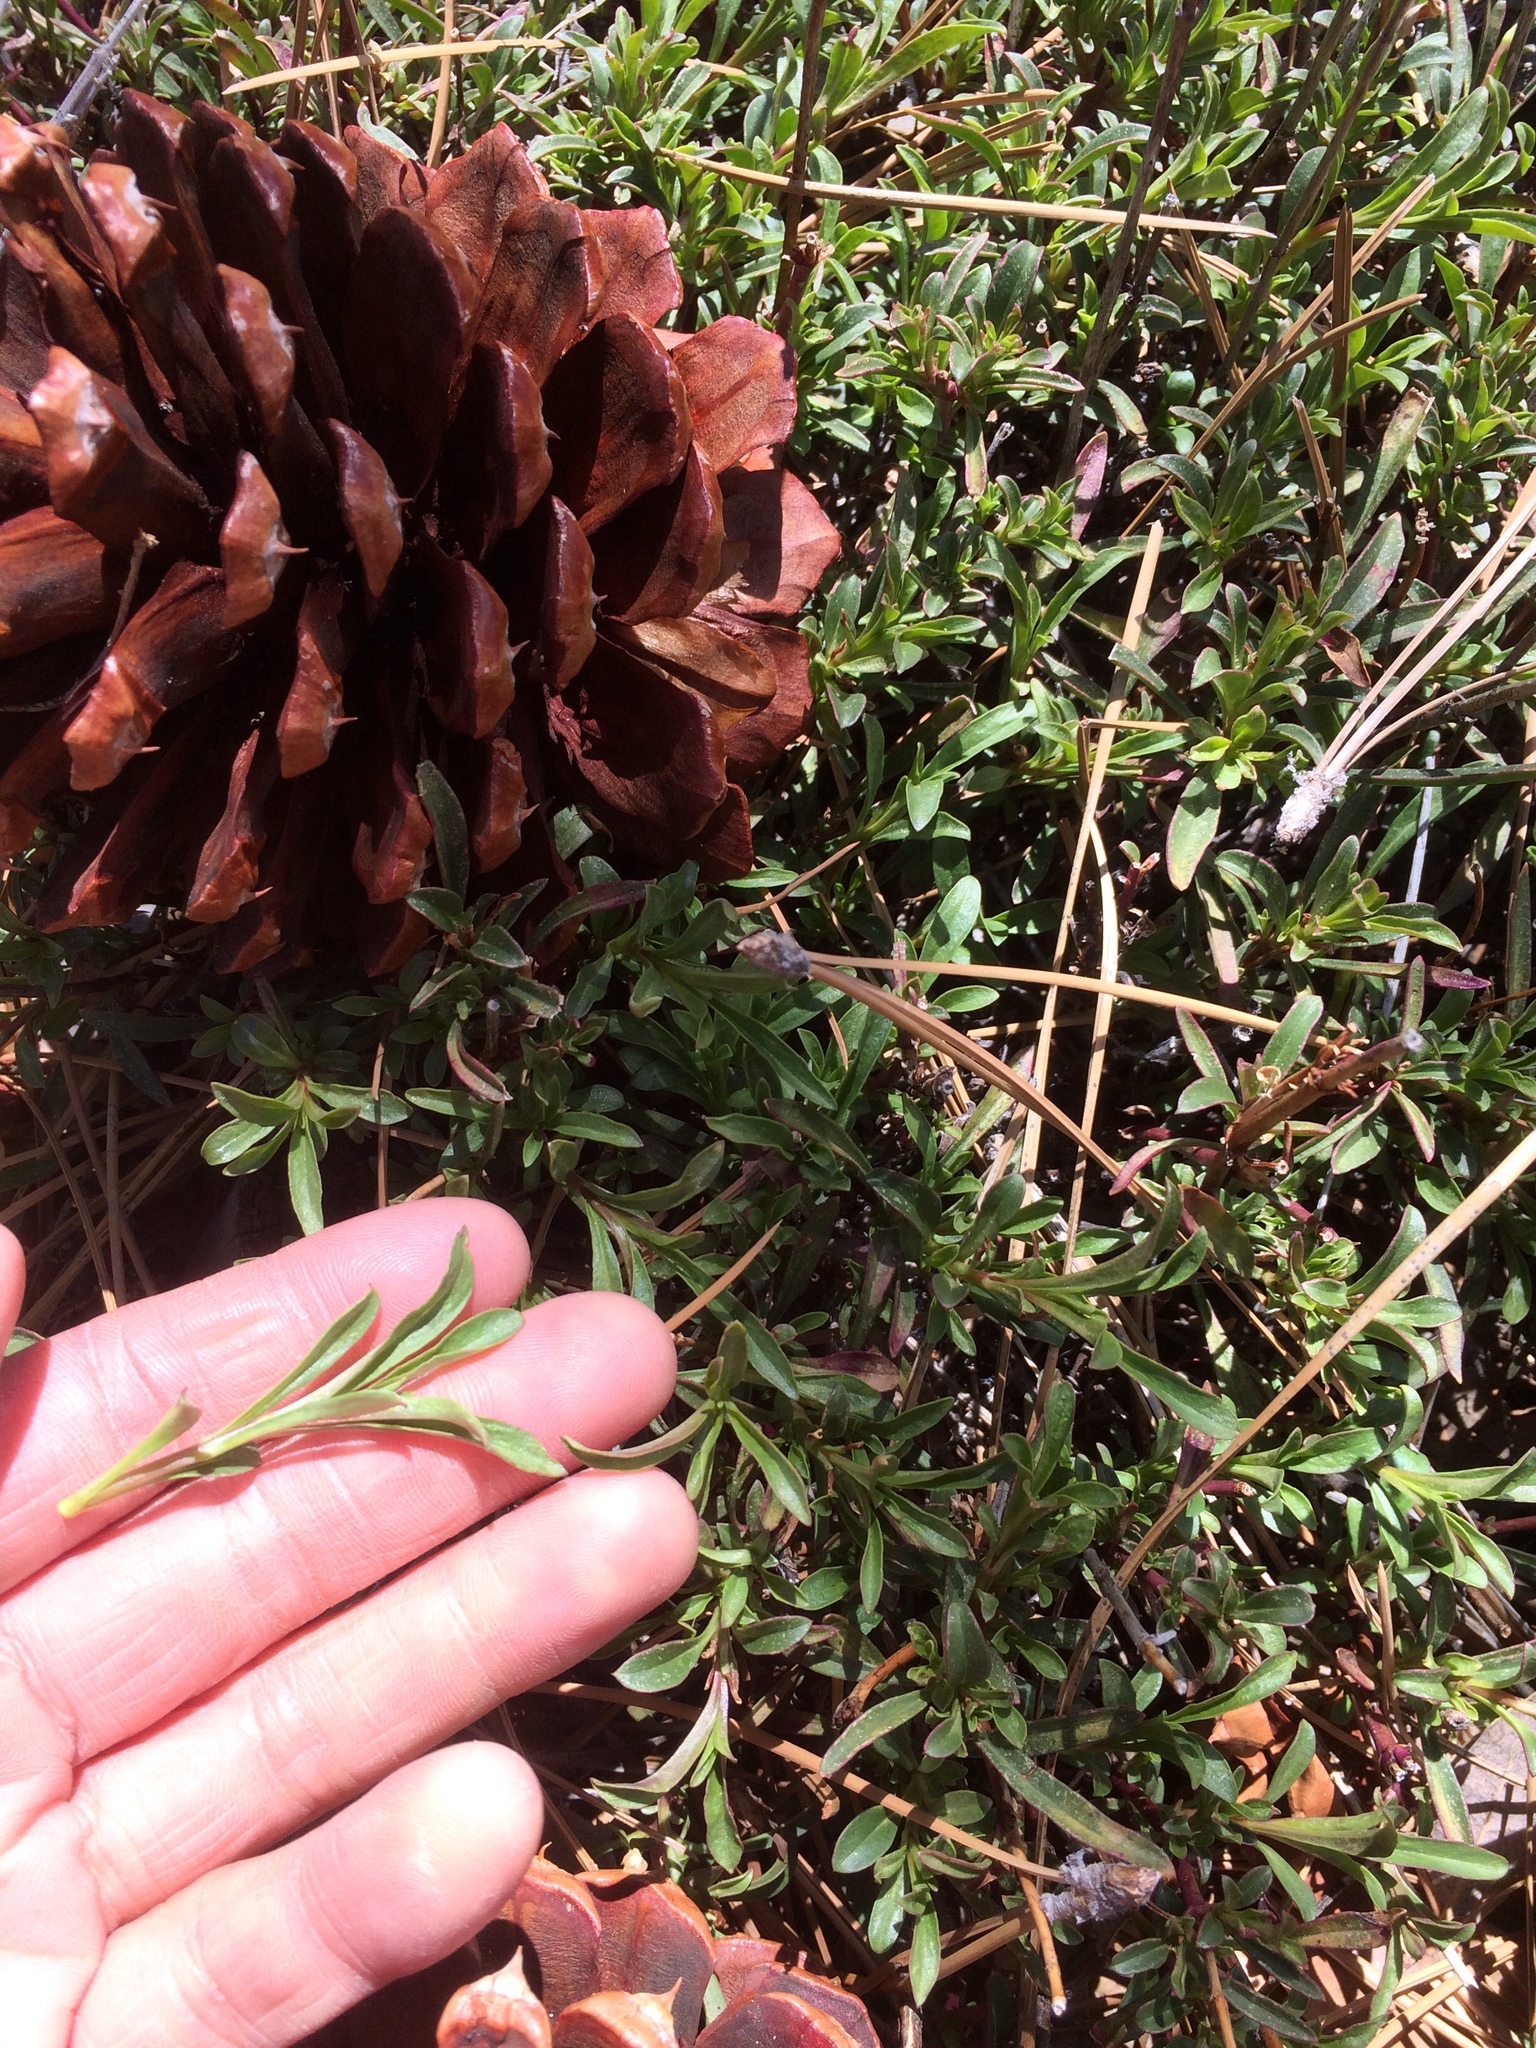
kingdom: Plantae
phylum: Tracheophyta
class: Magnoliopsida
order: Lamiales
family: Plantaginaceae
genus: Penstemon
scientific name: Penstemon rostriflorus
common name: Bridges's penstemon
